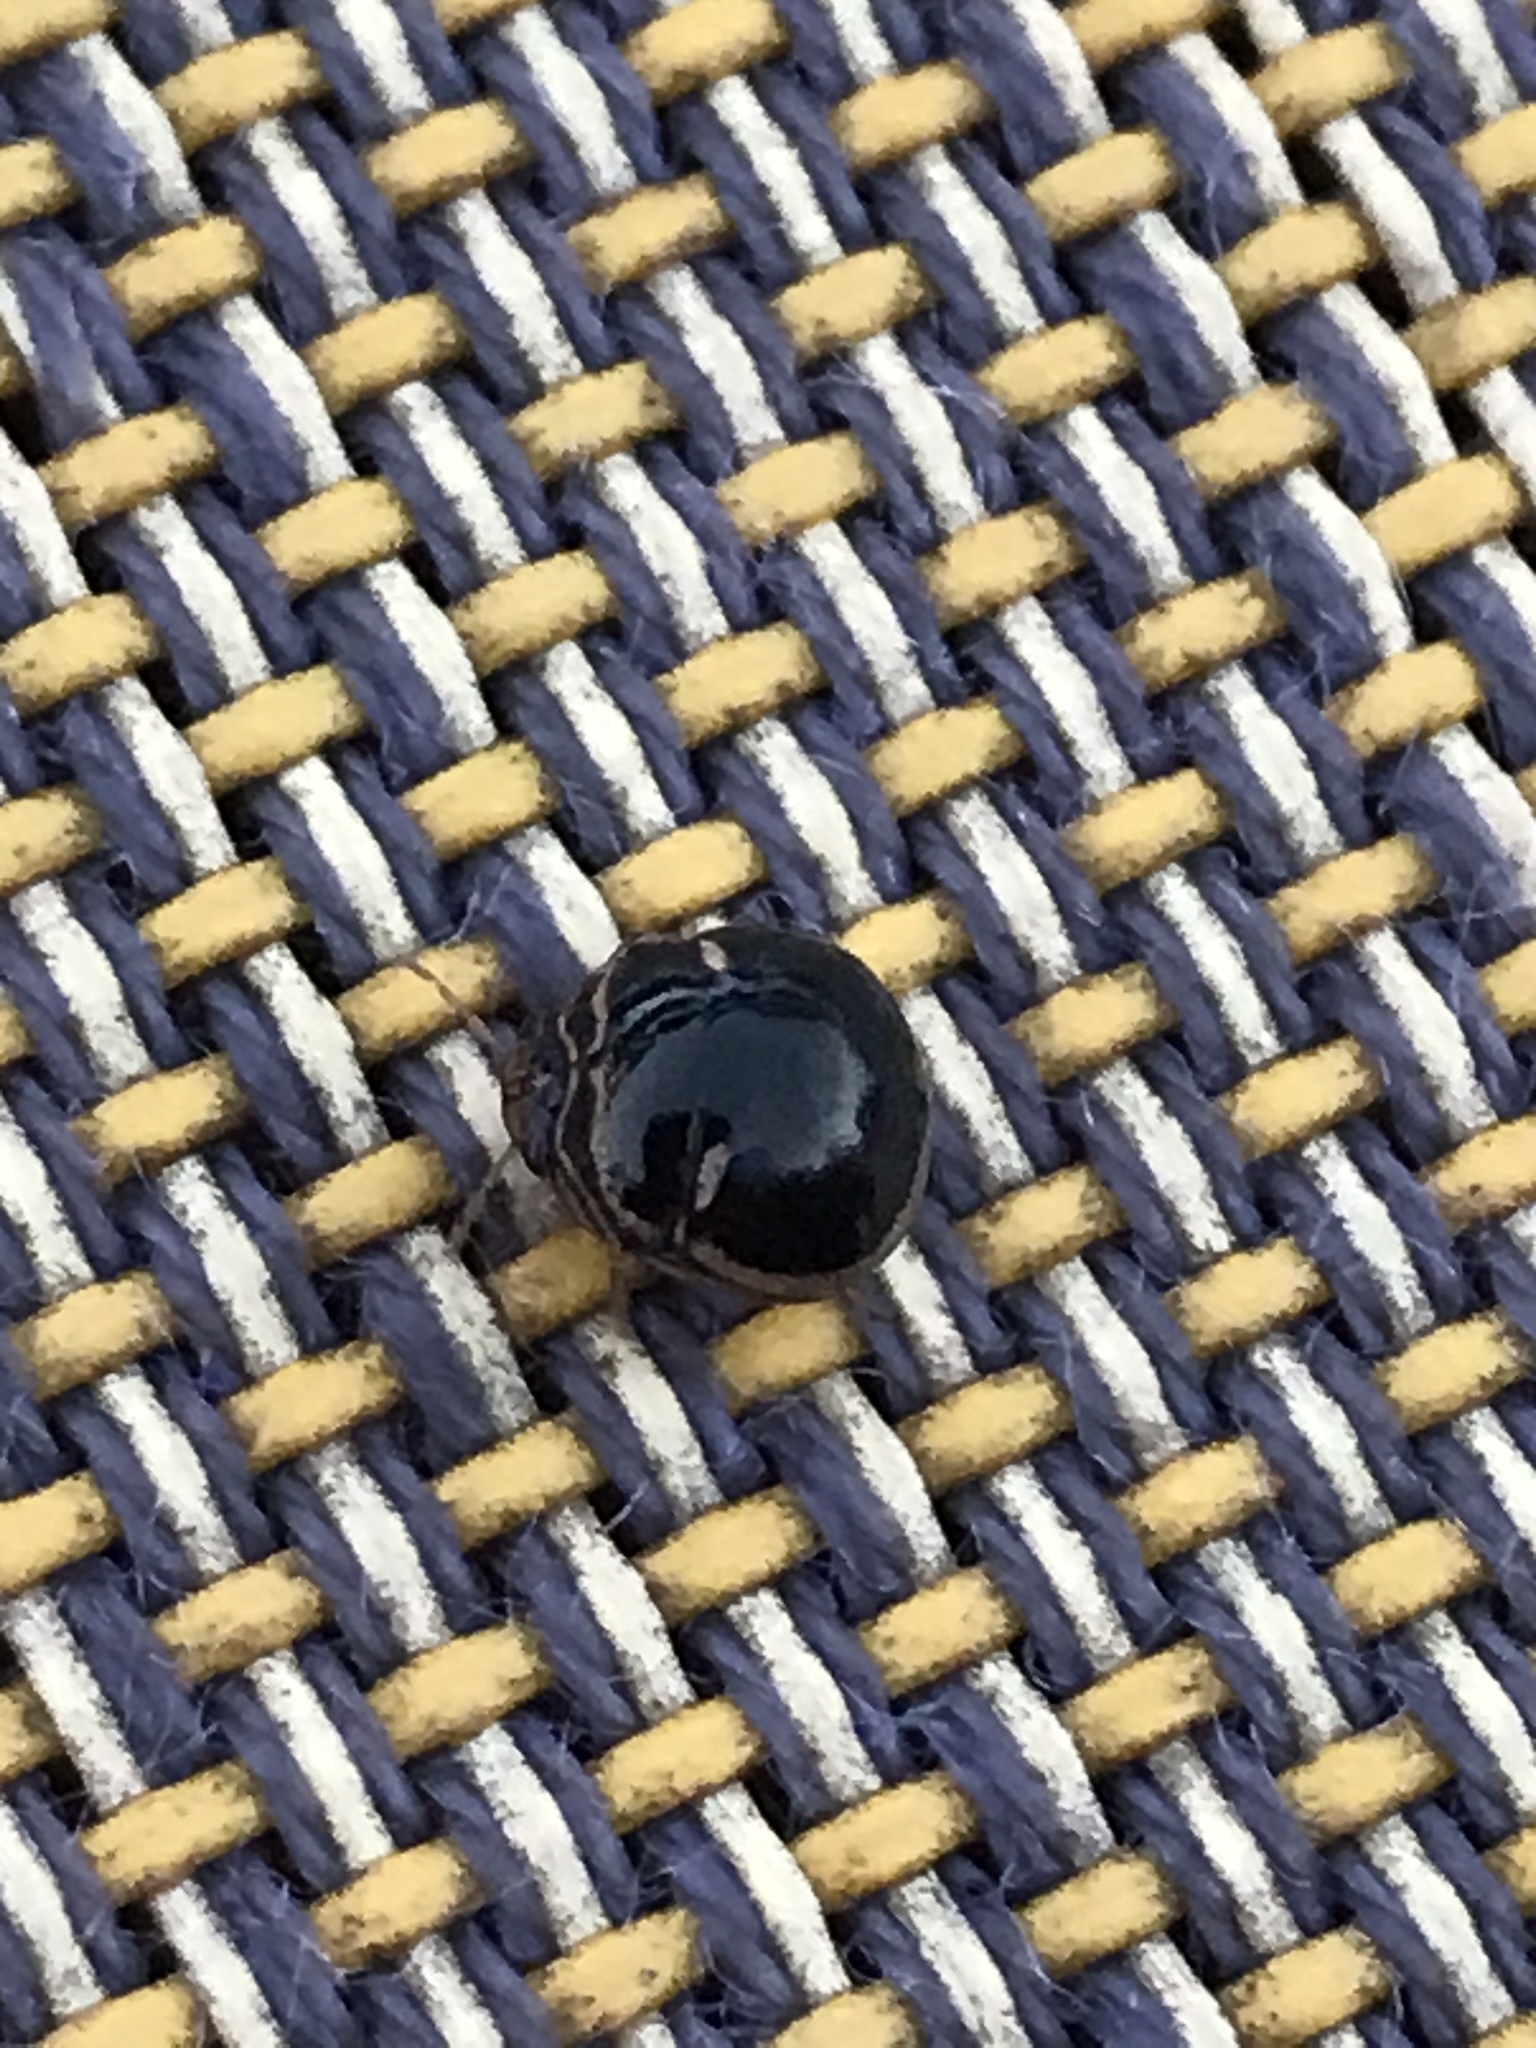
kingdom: Animalia
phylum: Arthropoda
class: Insecta
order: Hemiptera
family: Plataspidae
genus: Coptosoma
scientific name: Coptosoma
